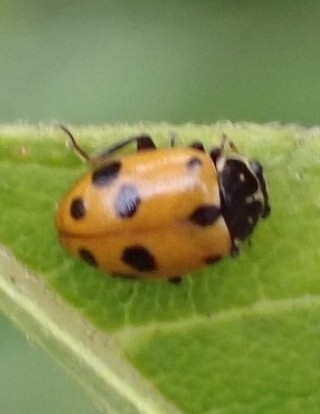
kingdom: Animalia
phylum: Arthropoda
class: Insecta
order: Coleoptera
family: Coccinellidae
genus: Hippodamia
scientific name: Hippodamia variegata
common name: Ladybird beetle
